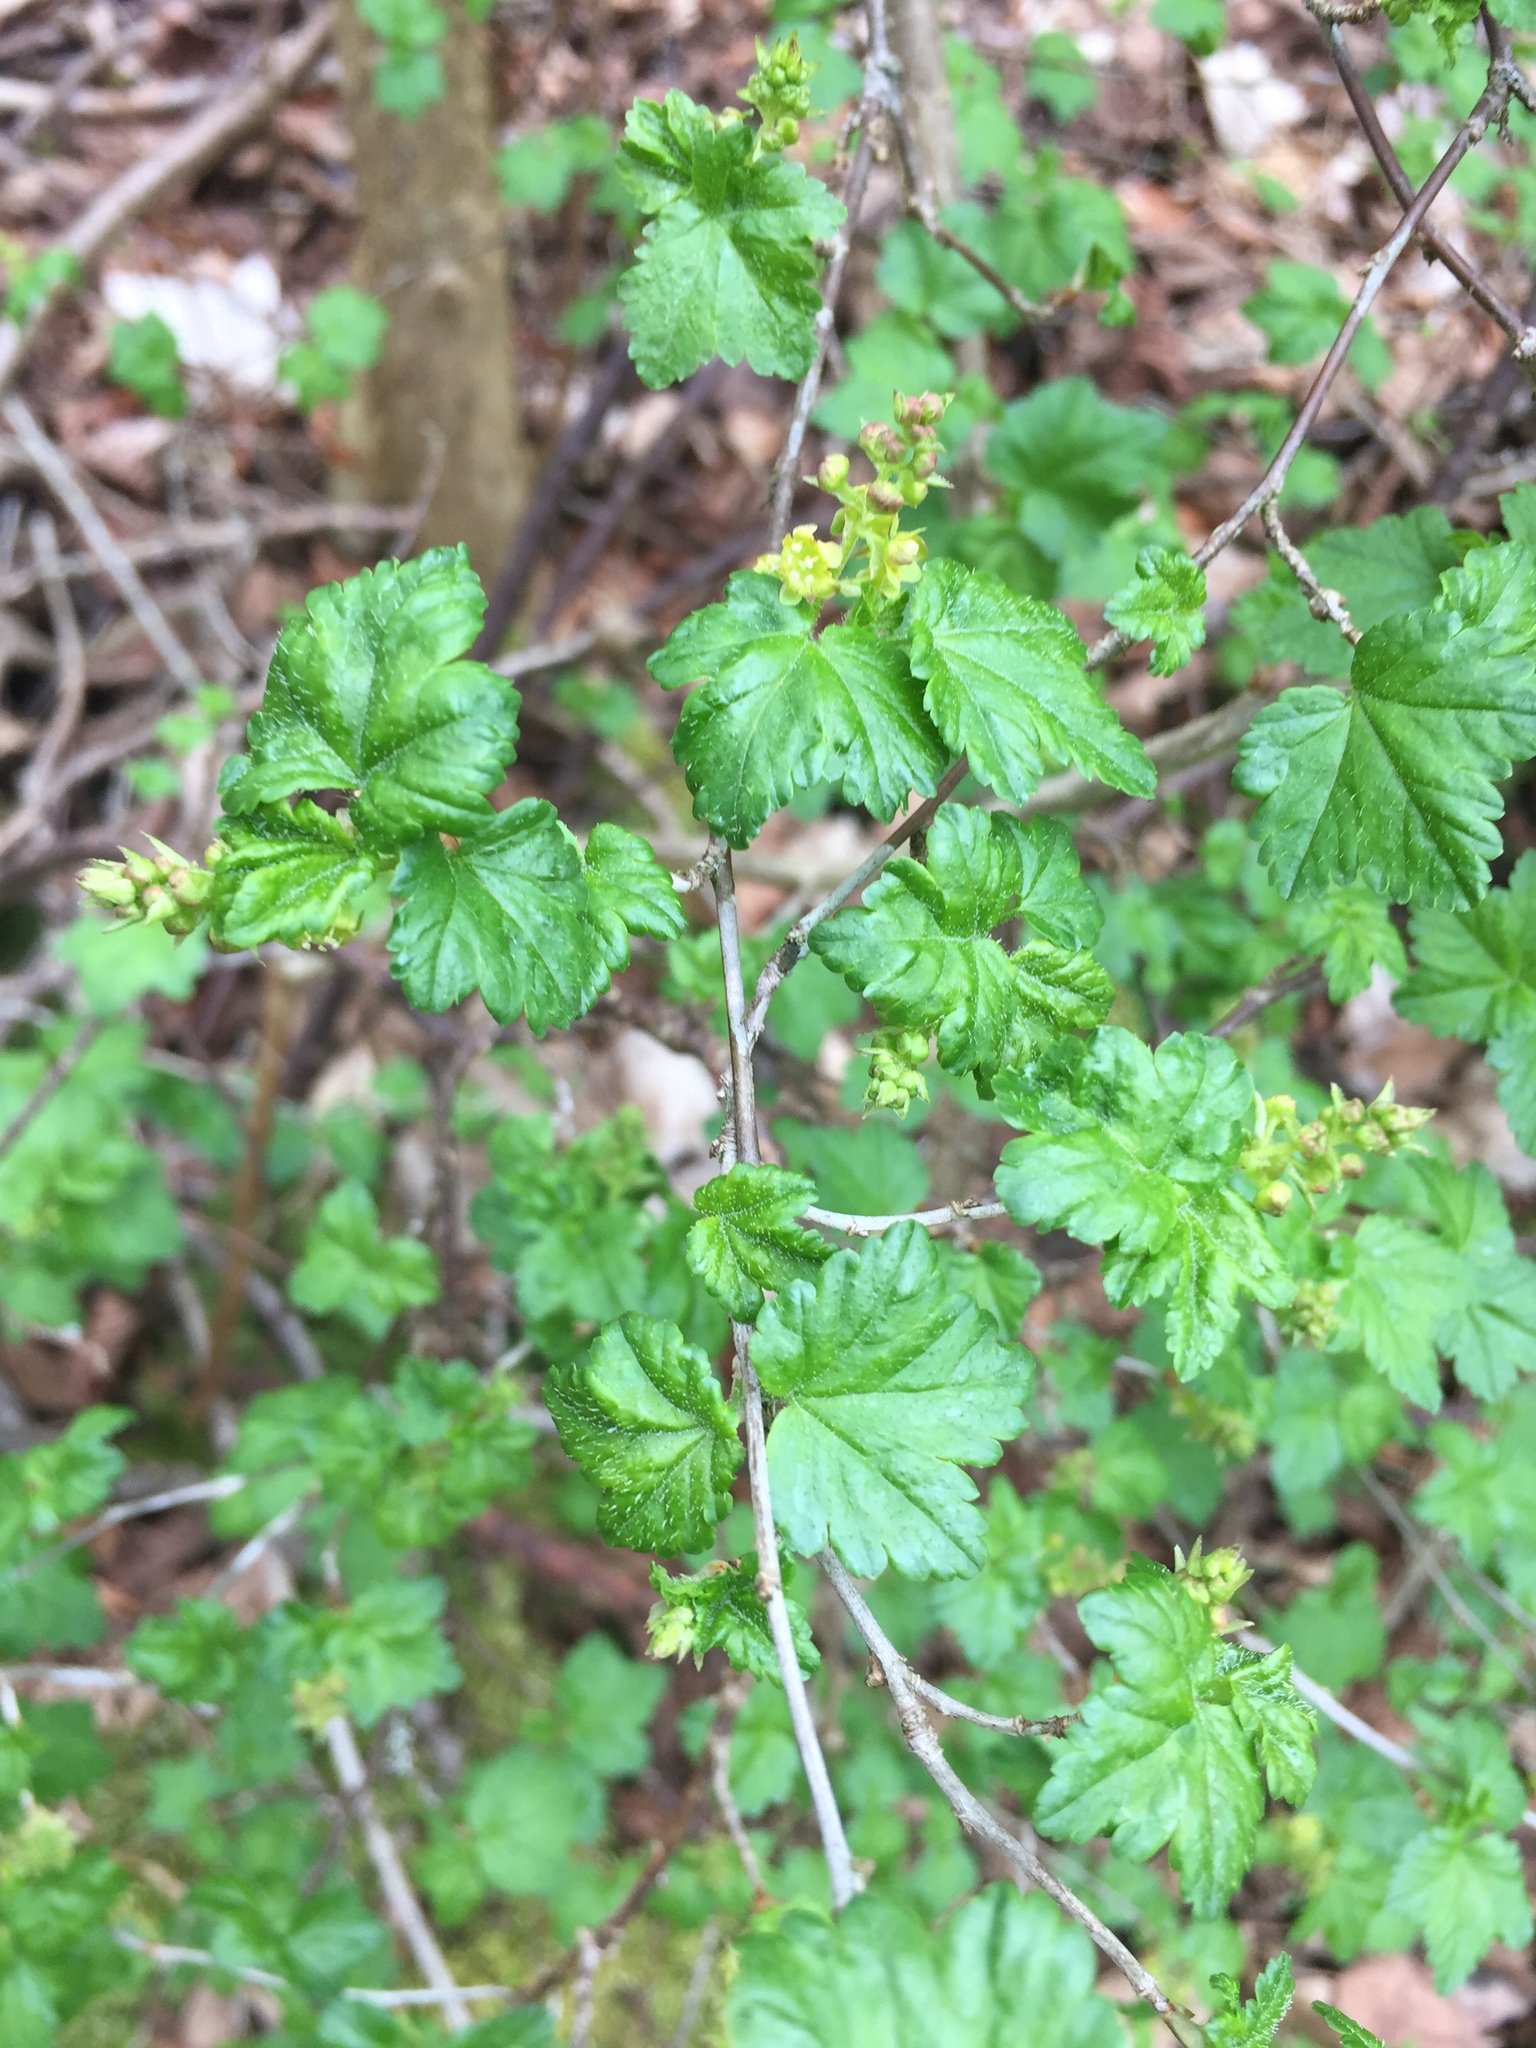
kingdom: Plantae
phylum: Tracheophyta
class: Magnoliopsida
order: Saxifragales
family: Grossulariaceae
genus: Ribes
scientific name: Ribes alpinum
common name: Alpine currant
